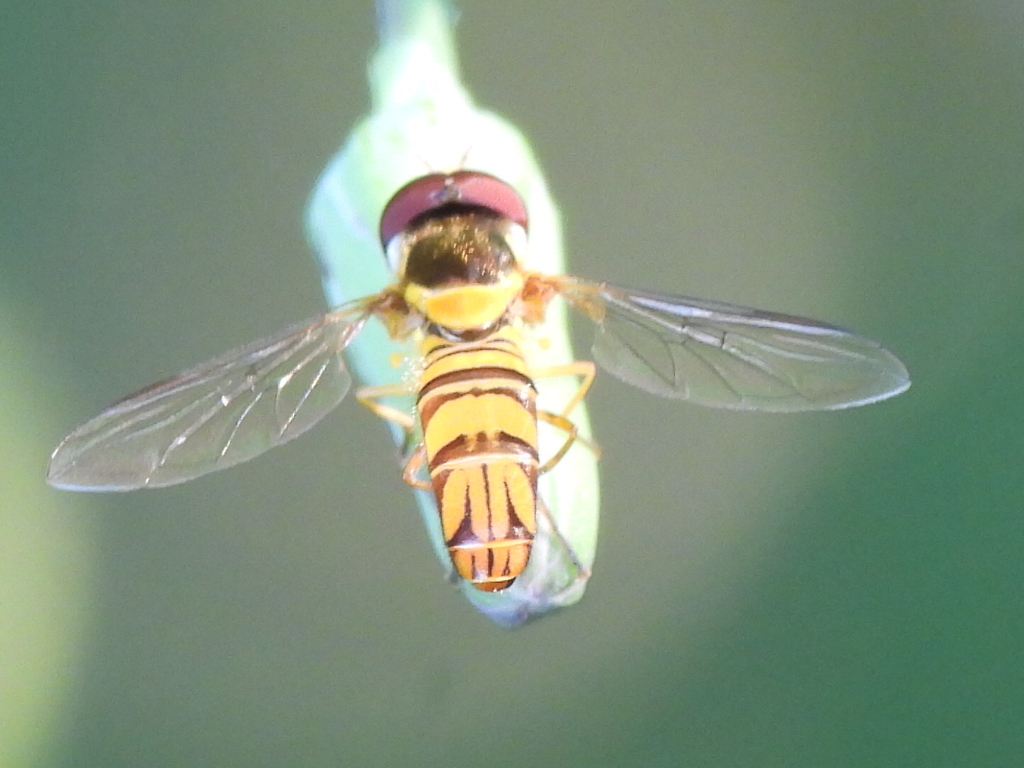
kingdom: Animalia
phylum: Arthropoda
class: Insecta
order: Diptera
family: Syrphidae
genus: Allograpta
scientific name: Allograpta obliqua
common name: Common oblique syrphid
